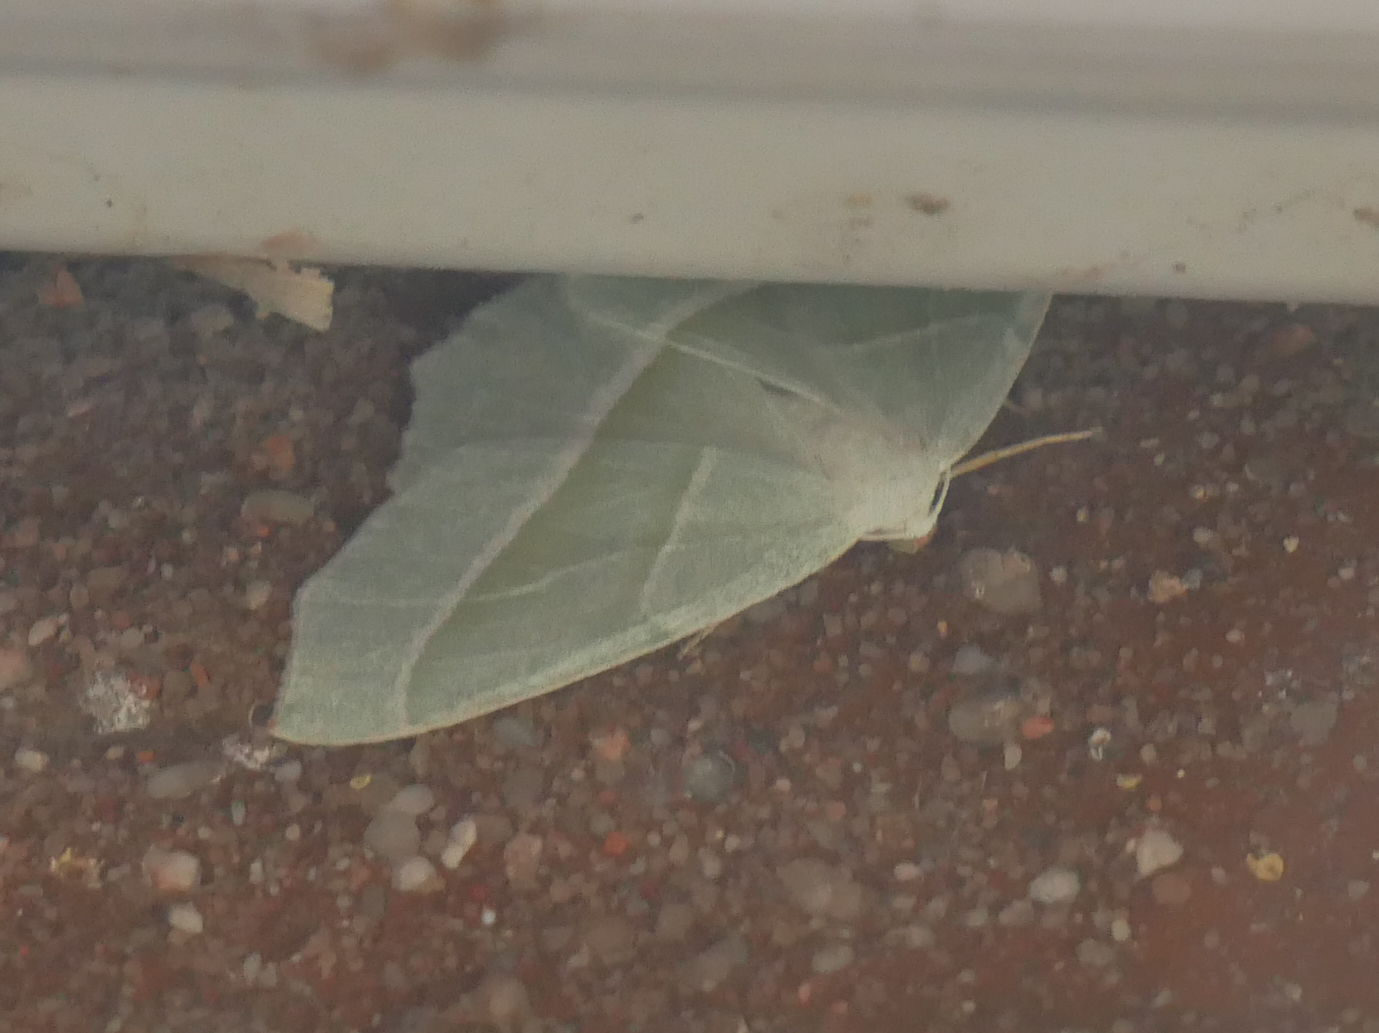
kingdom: Animalia
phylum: Arthropoda
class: Insecta
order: Lepidoptera
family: Geometridae
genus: Campaea
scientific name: Campaea margaritaria
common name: Light emerald
